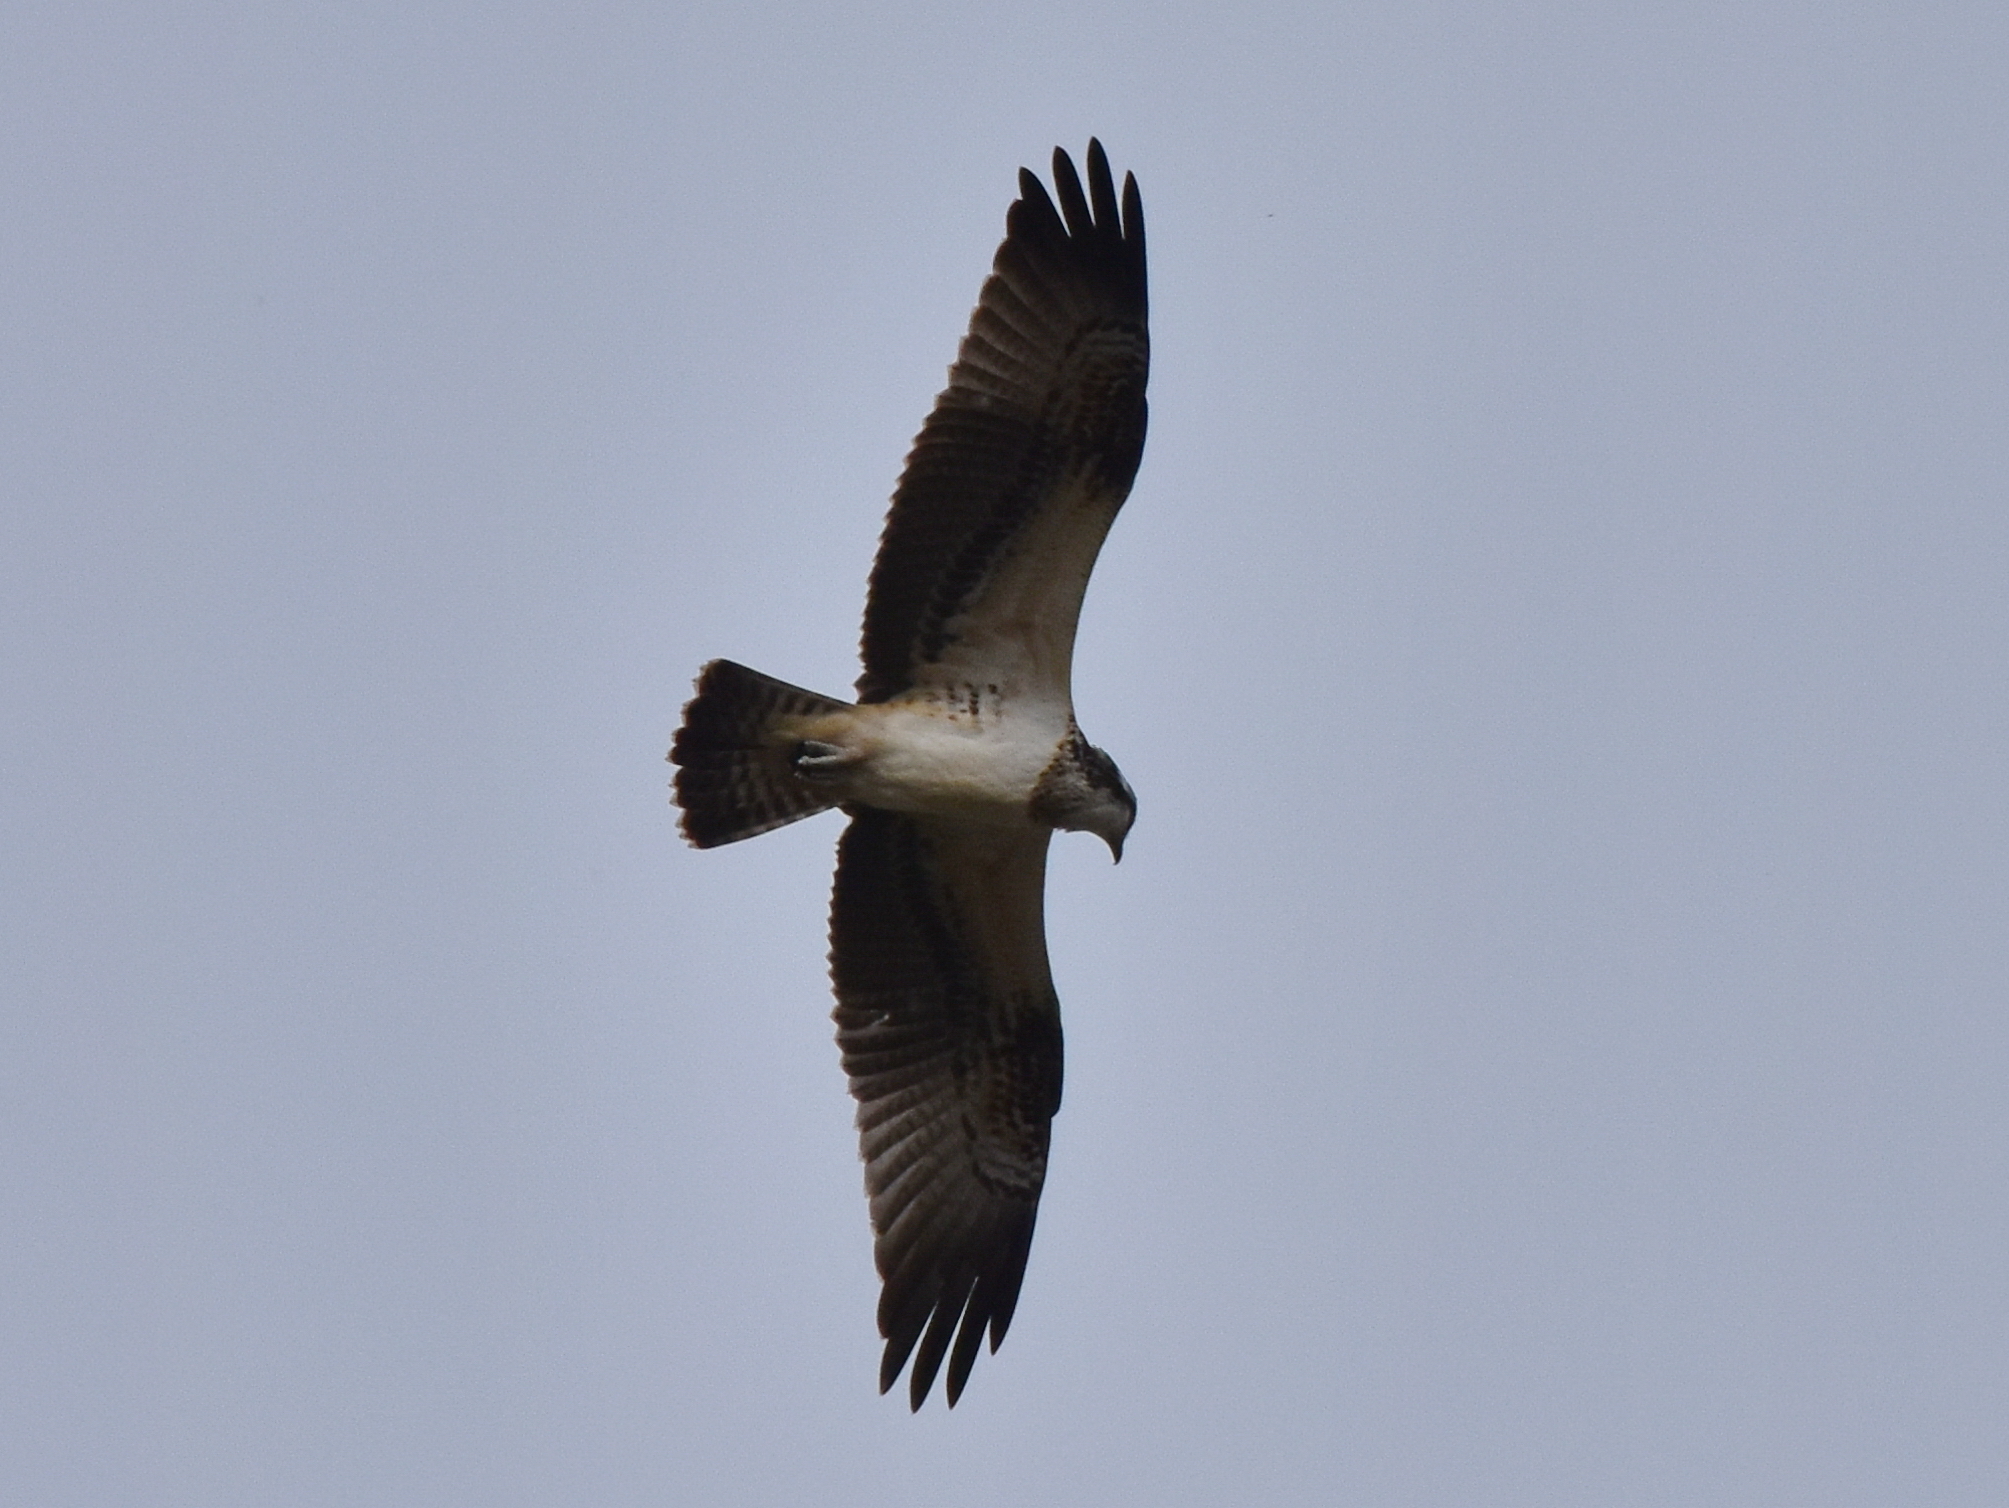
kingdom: Animalia
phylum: Chordata
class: Aves
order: Accipitriformes
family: Pandionidae
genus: Pandion
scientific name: Pandion haliaetus
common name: Osprey
